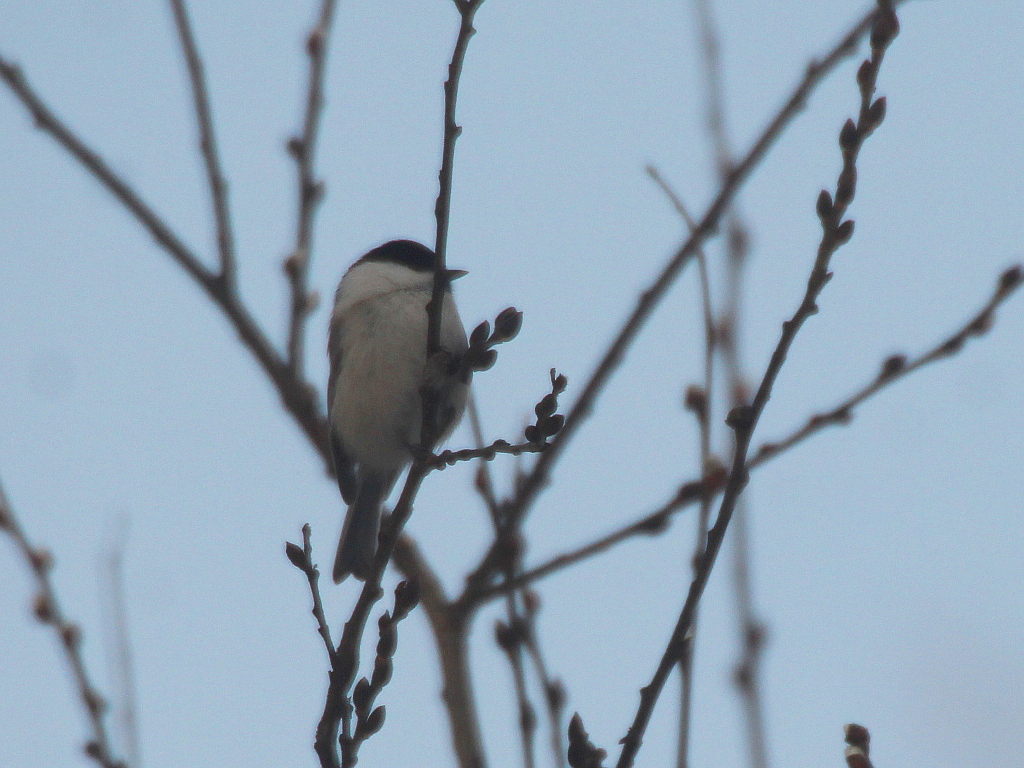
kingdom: Animalia
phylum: Chordata
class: Aves
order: Passeriformes
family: Paridae
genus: Poecile
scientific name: Poecile montanus
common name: Willow tit
